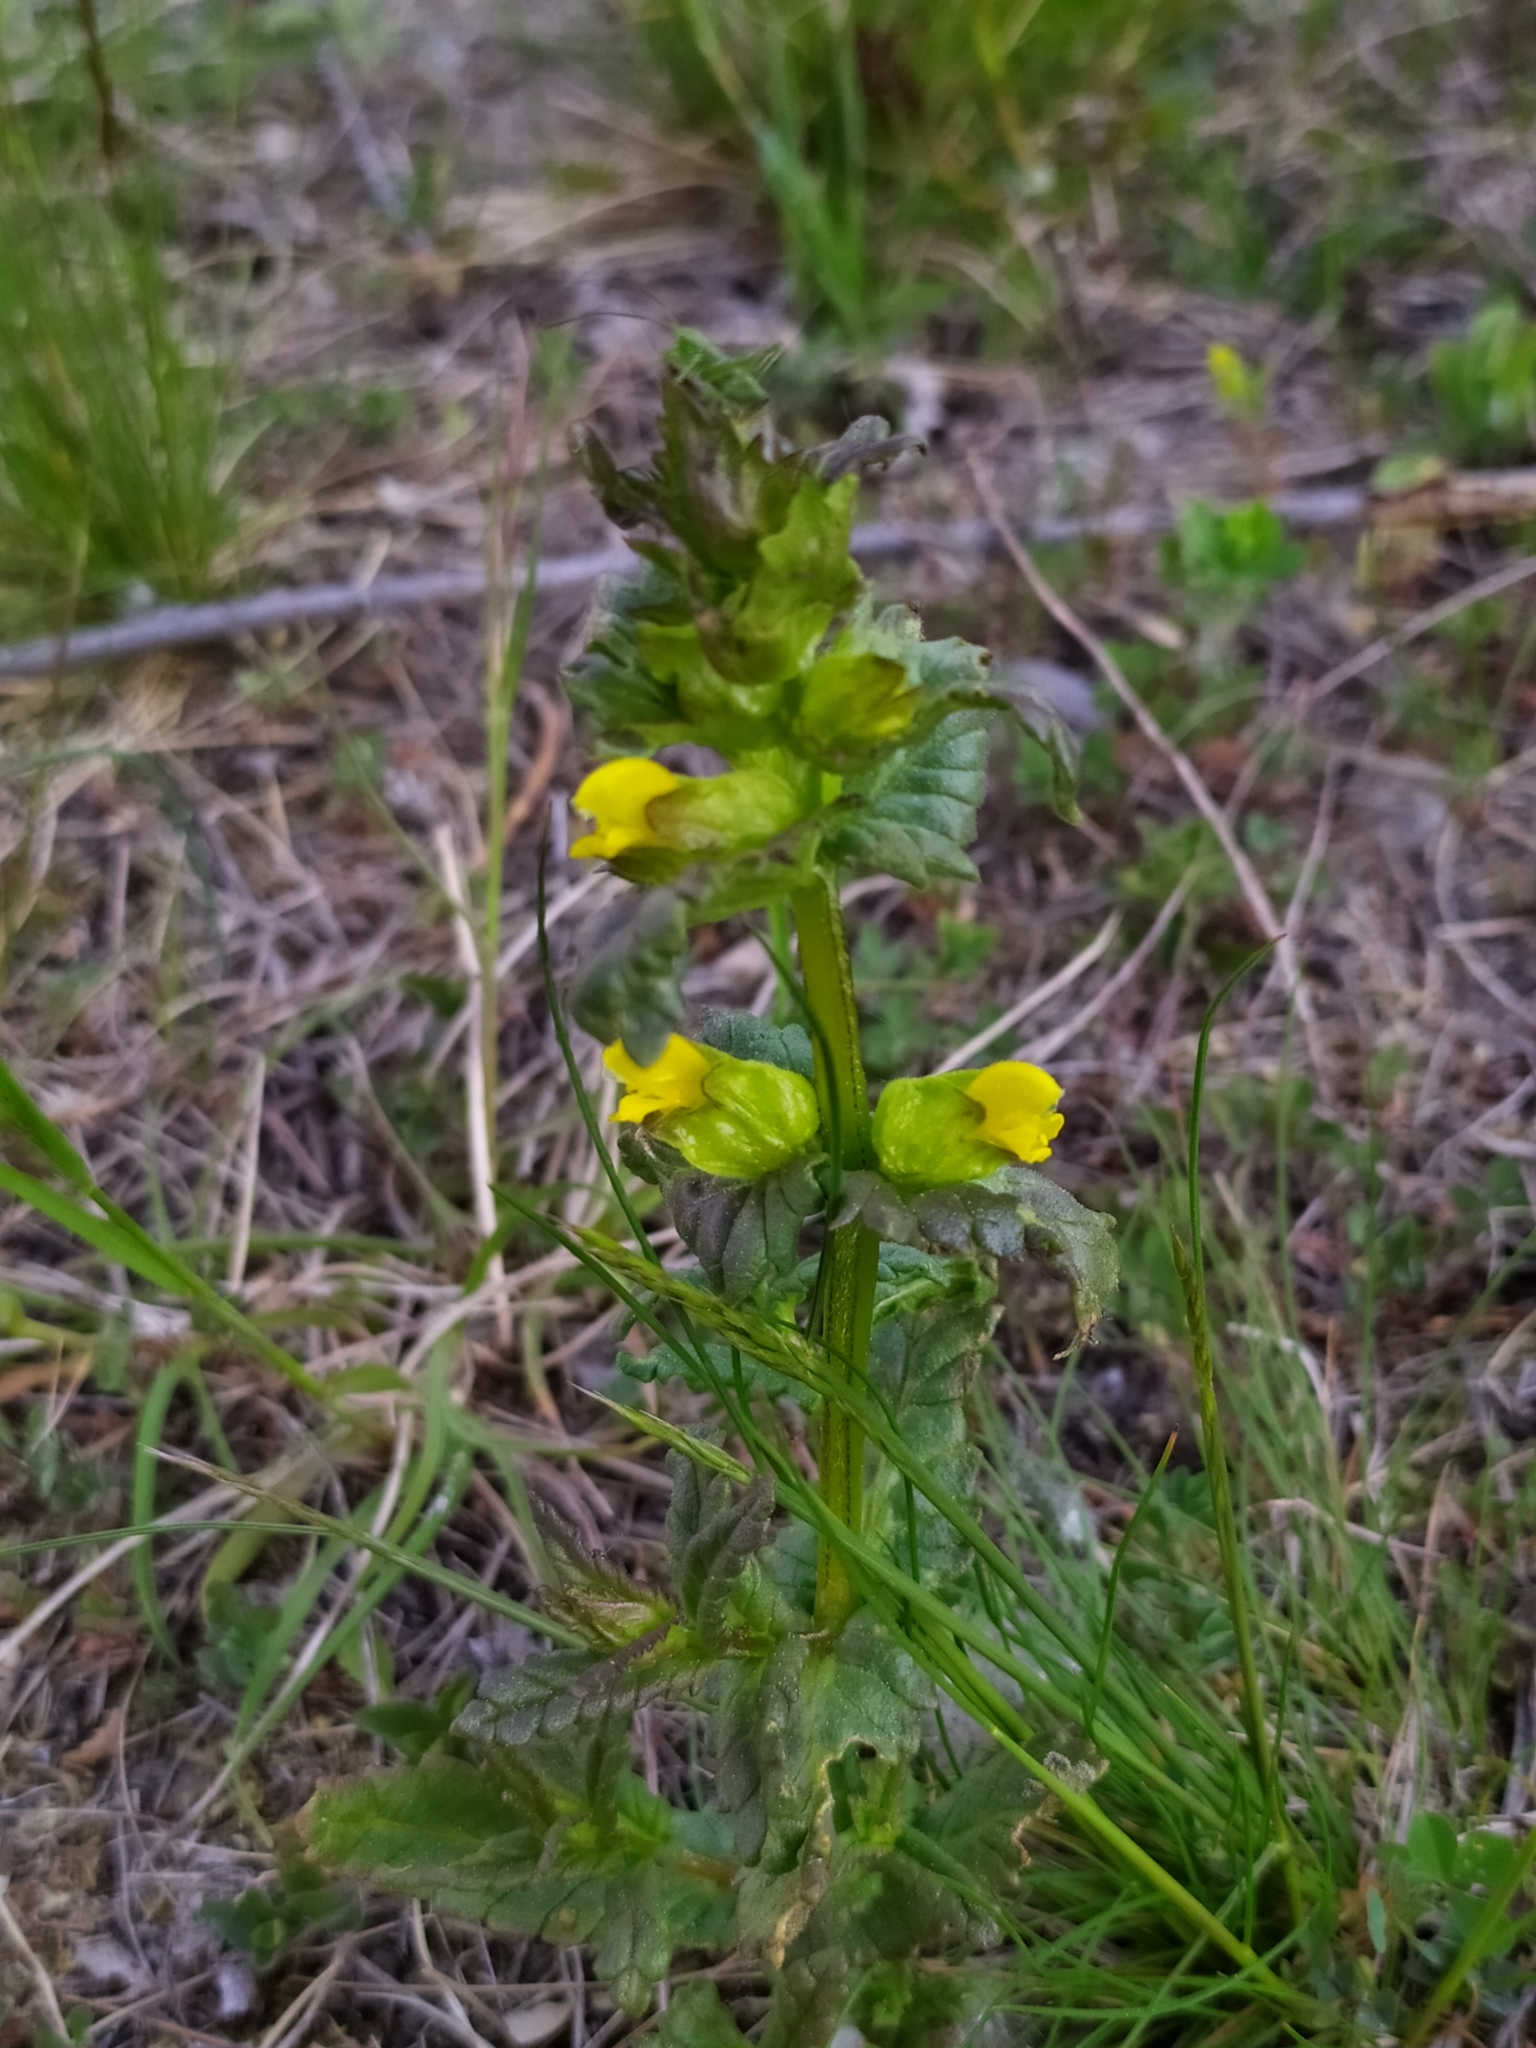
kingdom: Plantae
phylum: Tracheophyta
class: Magnoliopsida
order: Lamiales
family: Orobanchaceae
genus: Rhinanthus
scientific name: Rhinanthus minor
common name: Yellow-rattle
